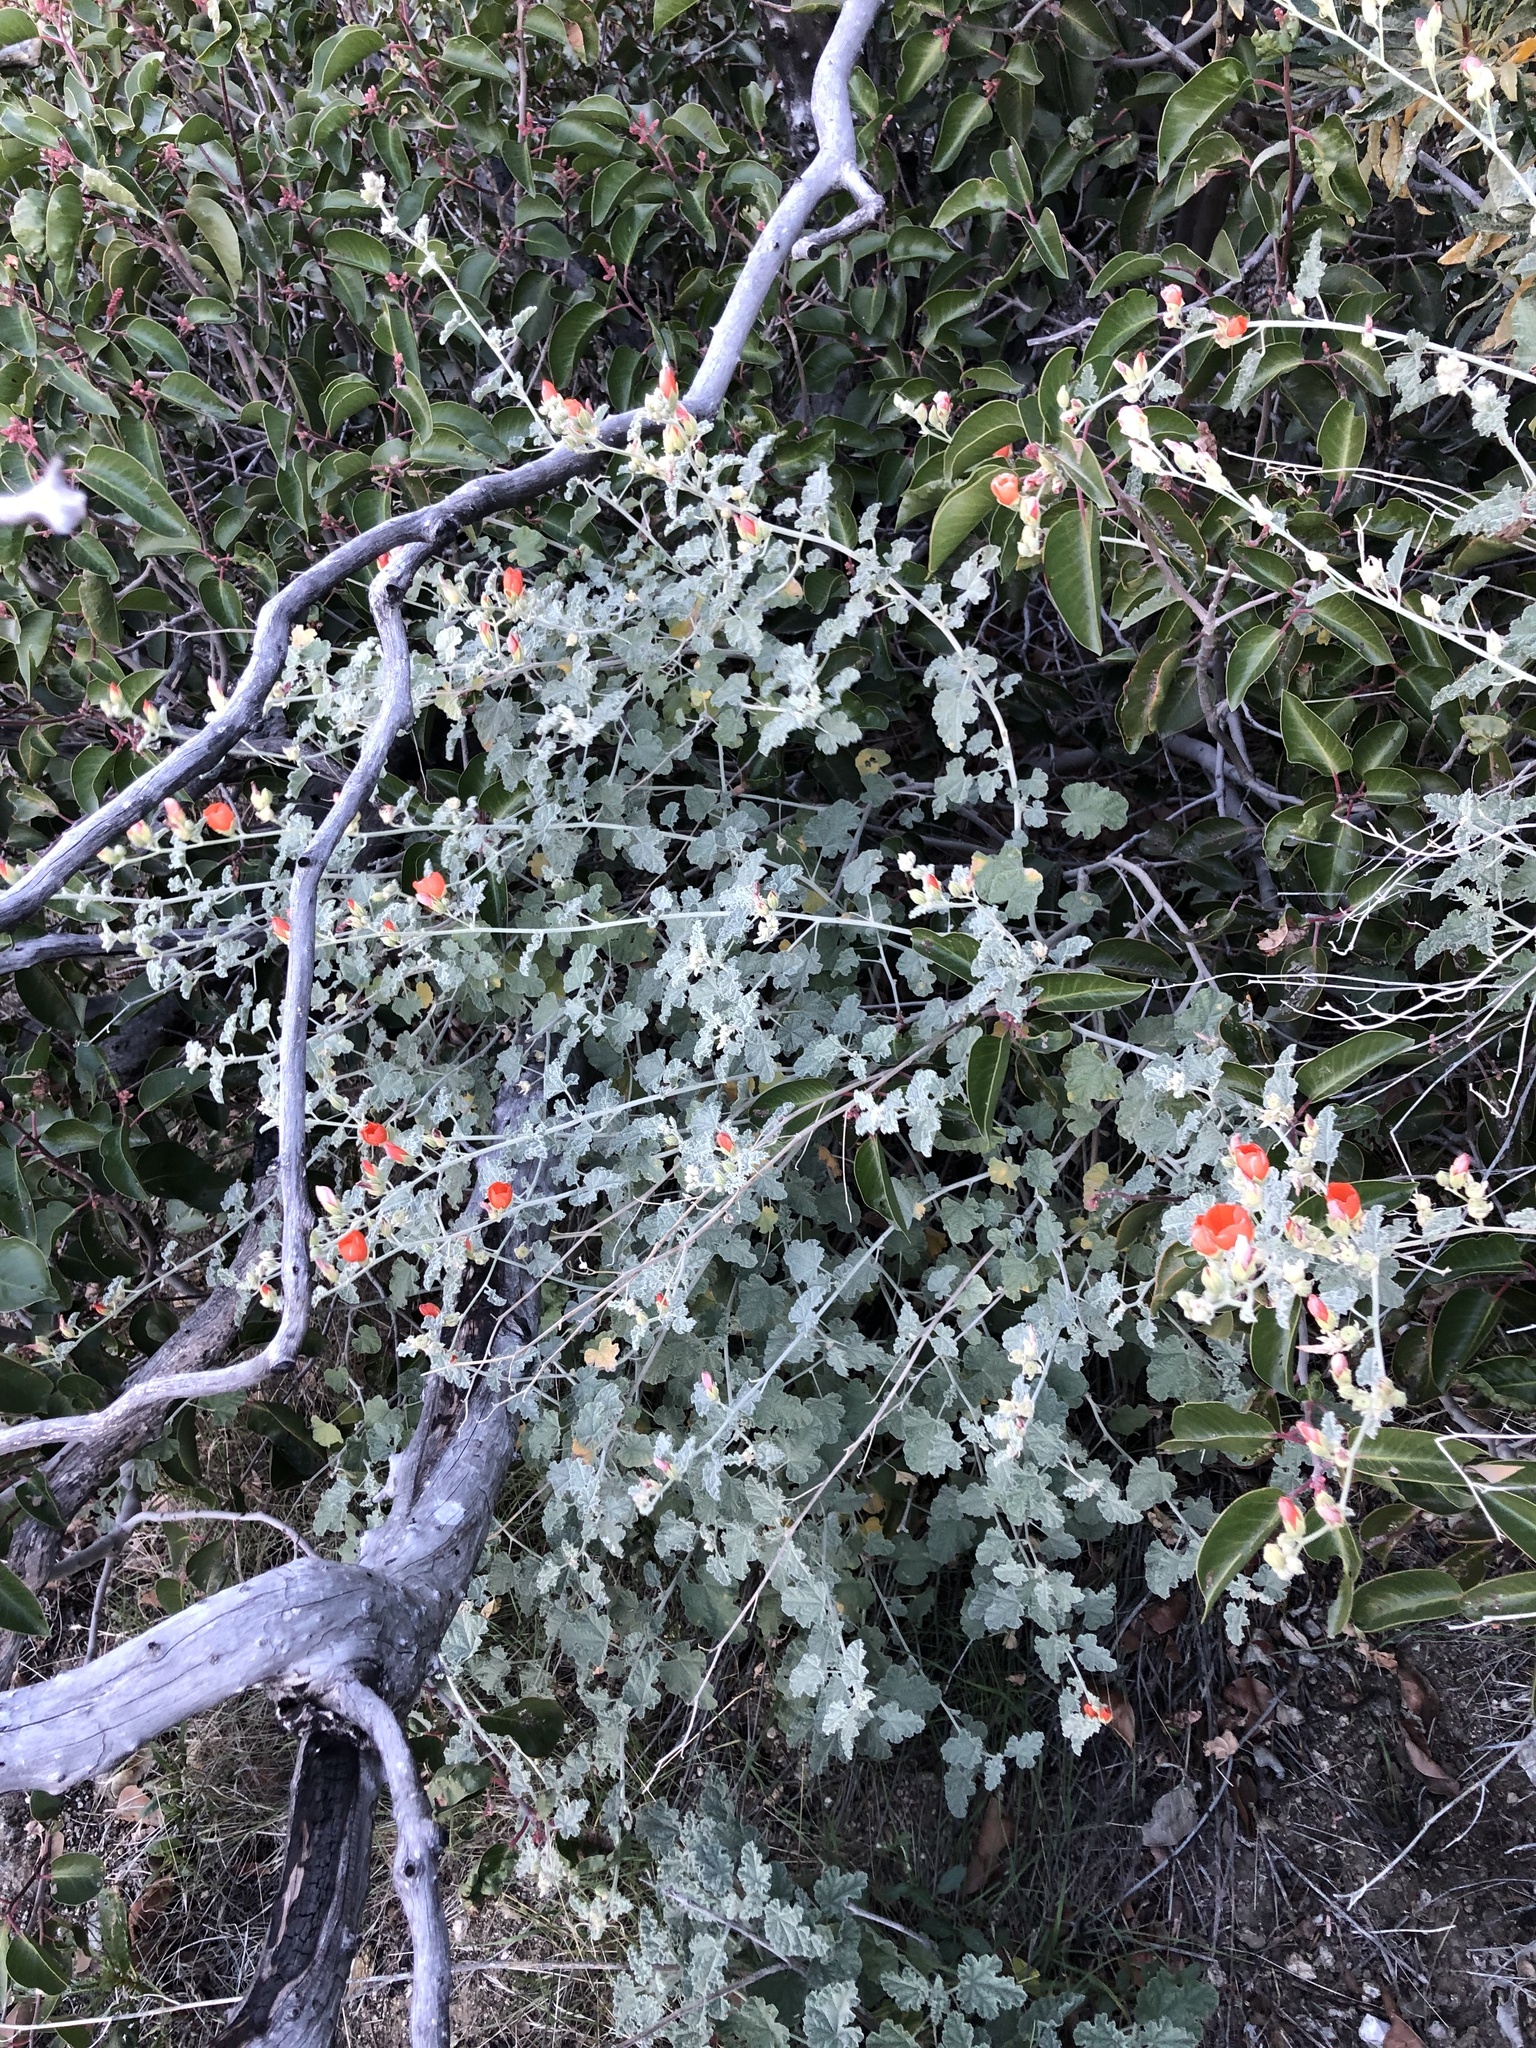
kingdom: Plantae
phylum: Tracheophyta
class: Magnoliopsida
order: Malvales
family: Malvaceae
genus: Sphaeralcea
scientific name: Sphaeralcea ambigua
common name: Apricot globe-mallow
